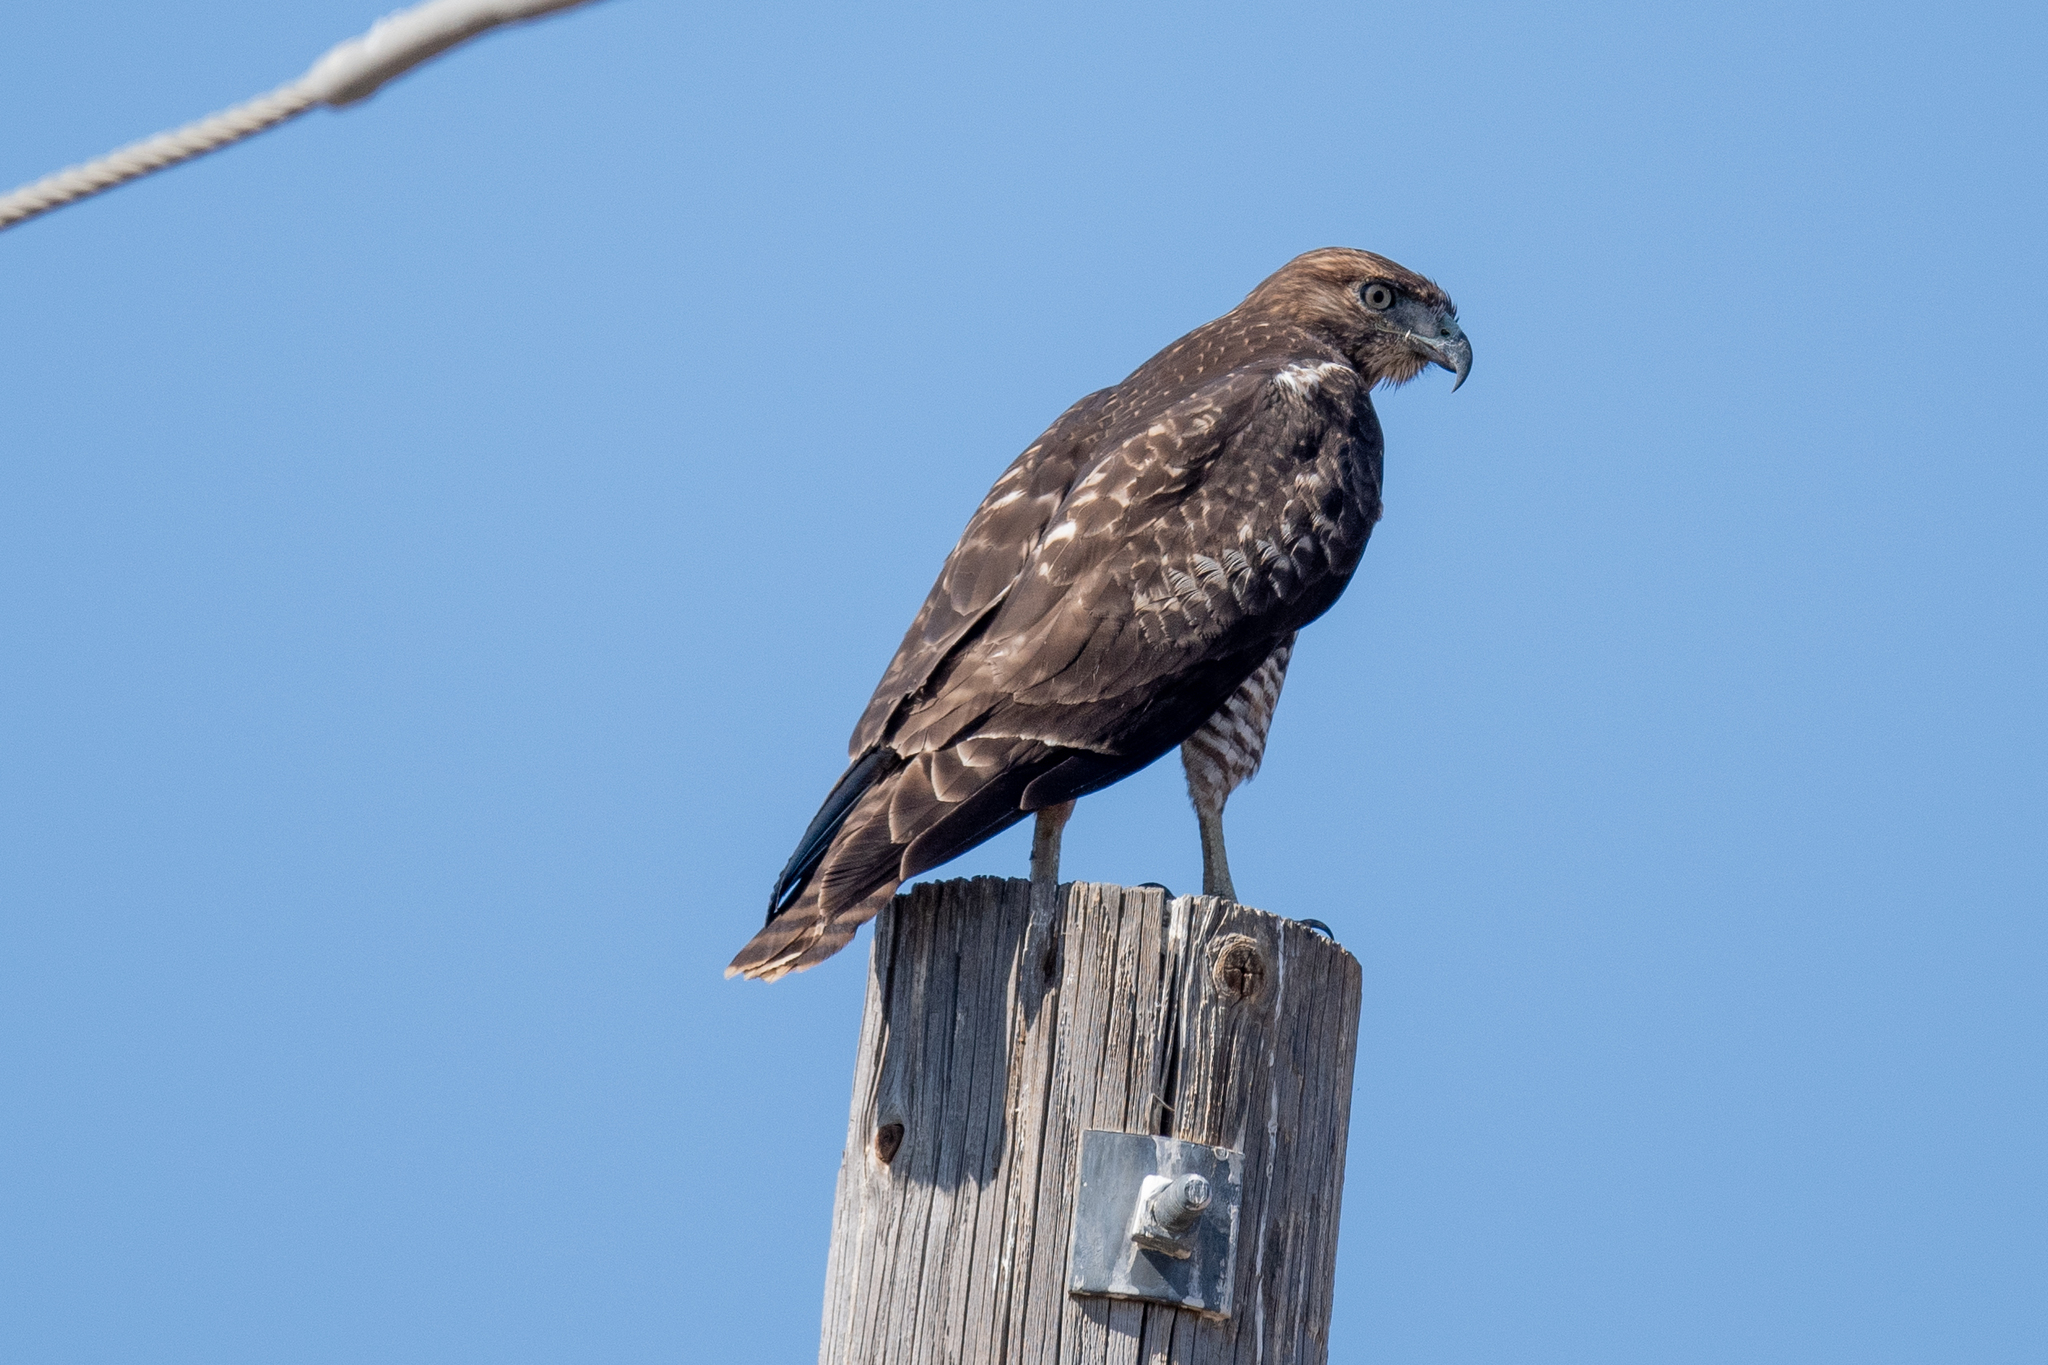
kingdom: Animalia
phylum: Chordata
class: Aves
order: Accipitriformes
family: Accipitridae
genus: Buteo
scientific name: Buteo jamaicensis
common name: Red-tailed hawk
